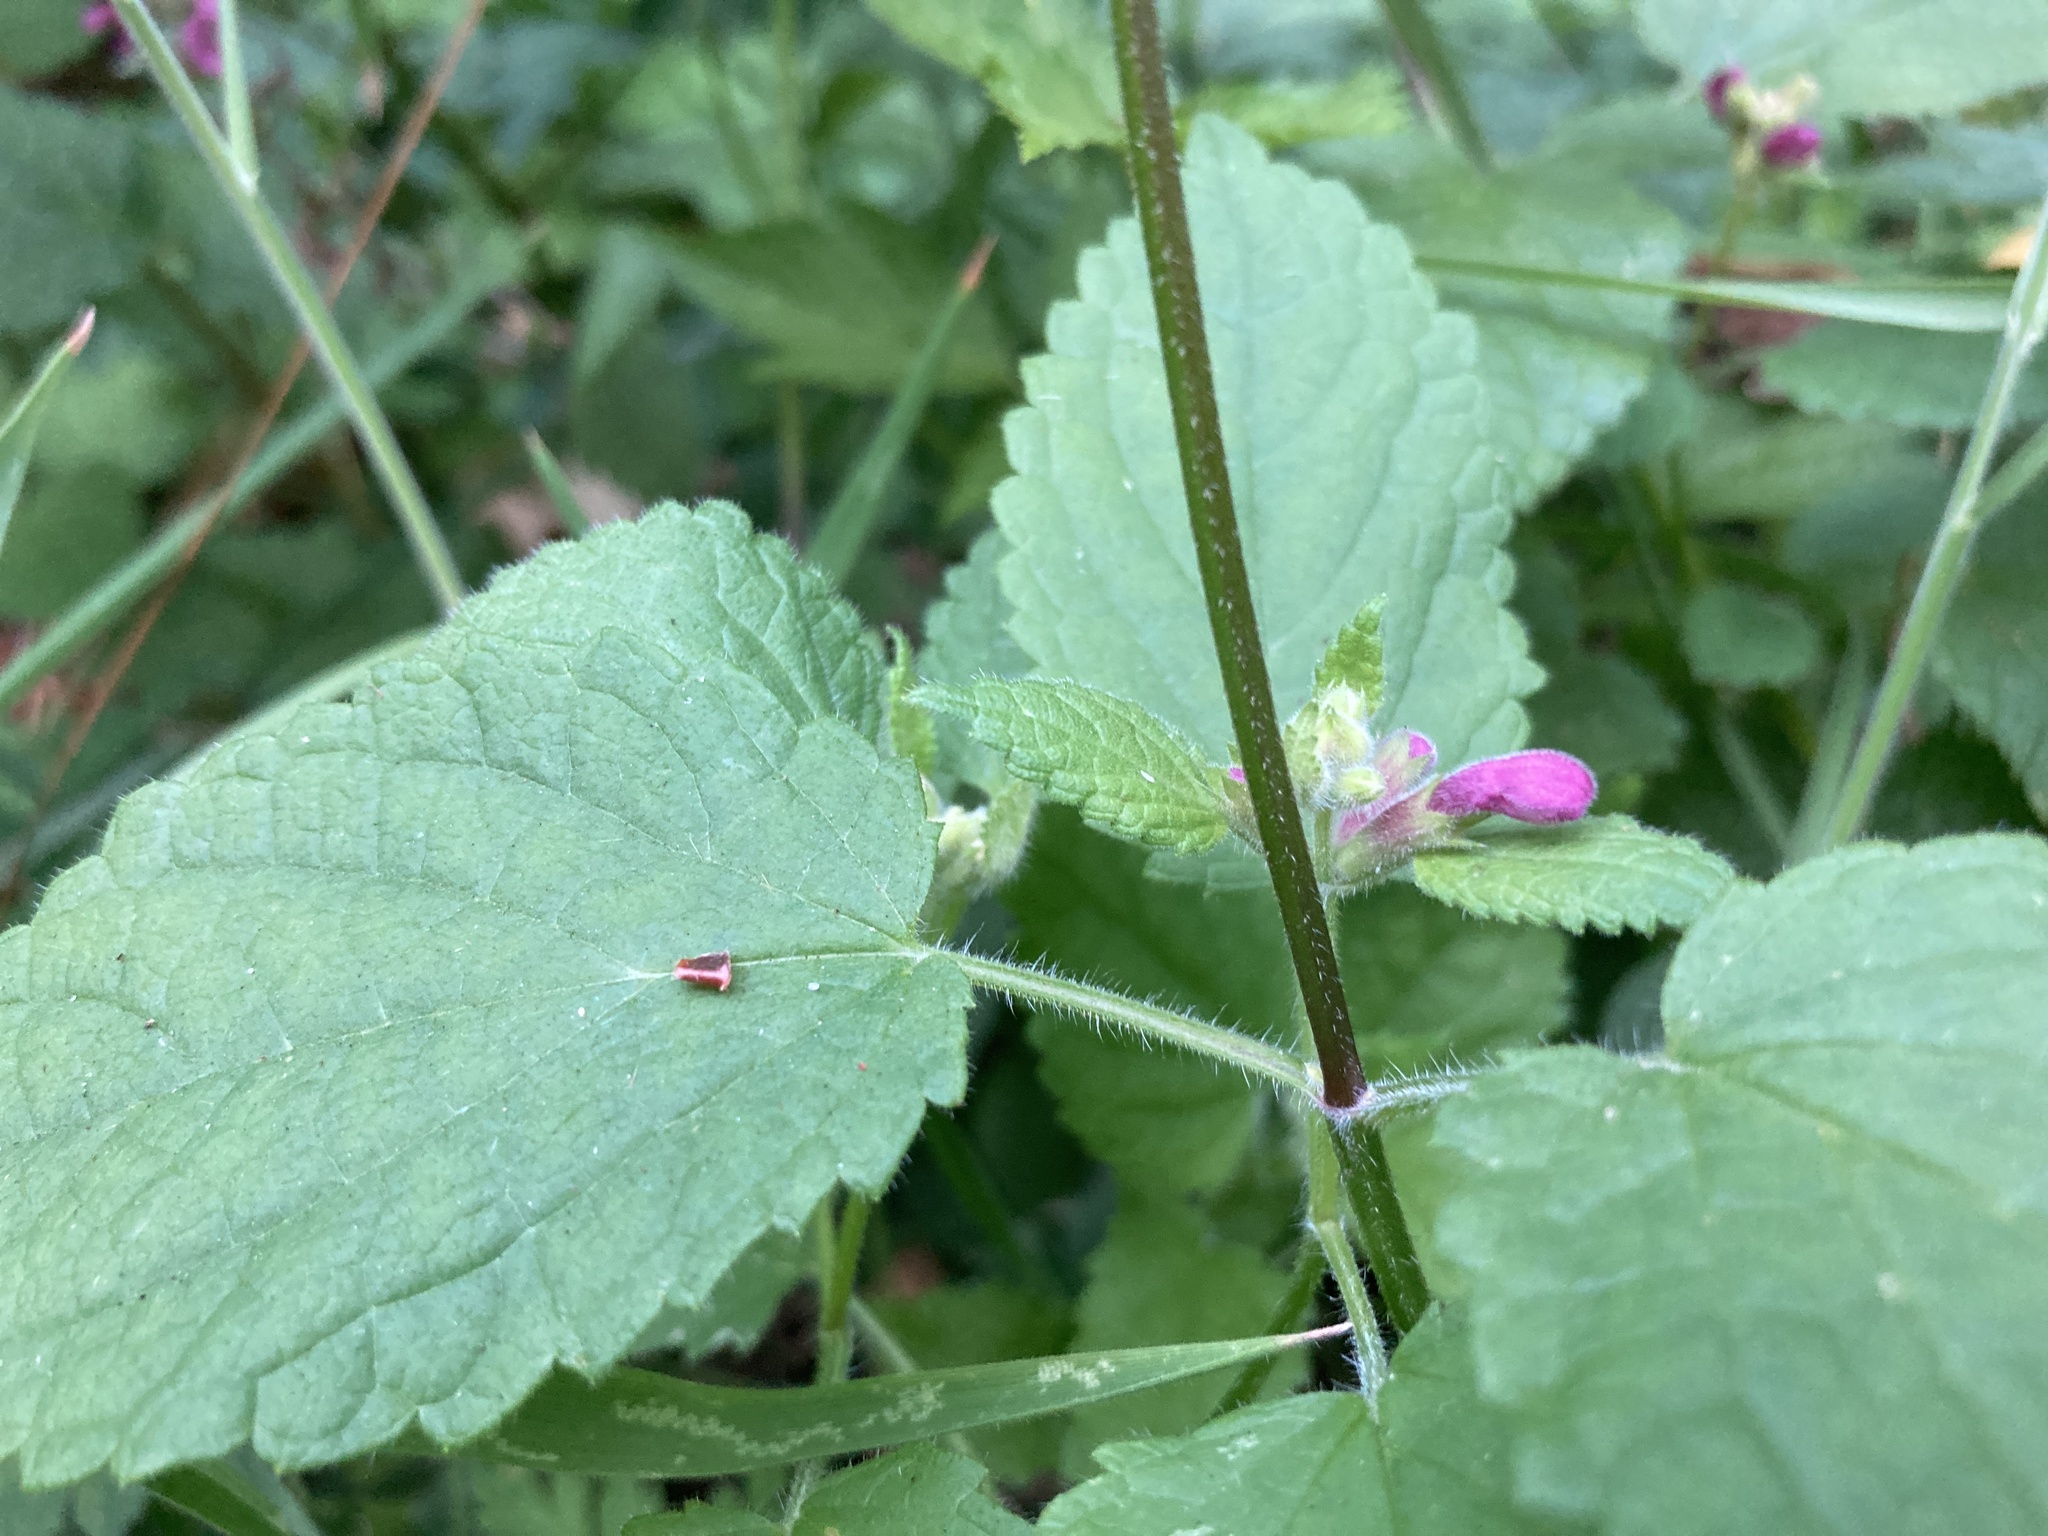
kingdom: Plantae
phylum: Tracheophyta
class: Magnoliopsida
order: Lamiales
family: Lamiaceae
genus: Stachys
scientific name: Stachys chamissonis
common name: Coastal hedge-nettle
